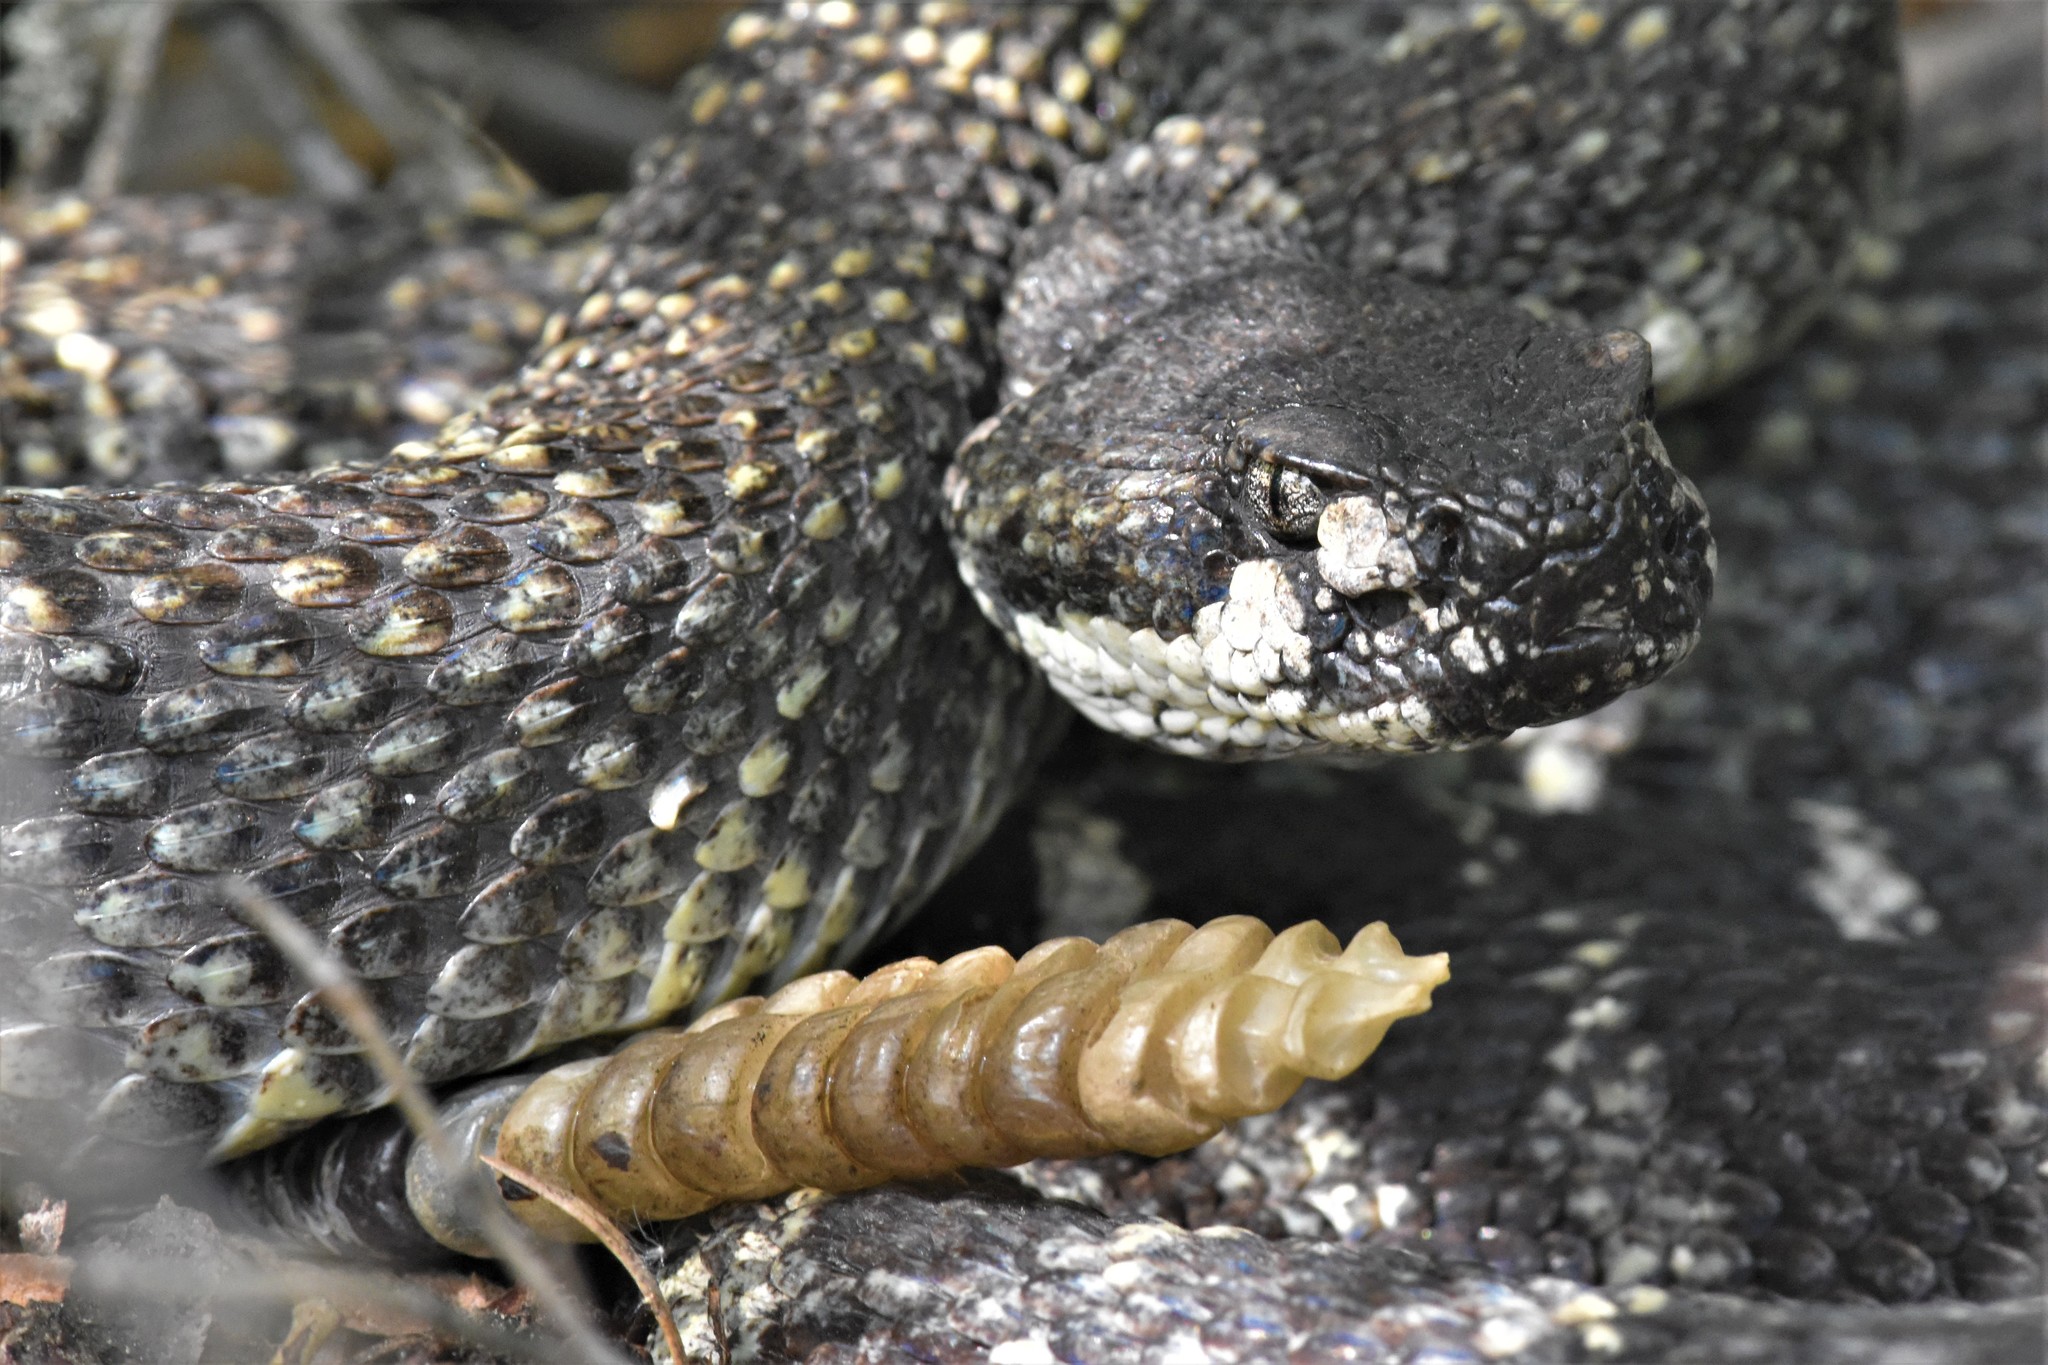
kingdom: Animalia
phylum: Chordata
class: Squamata
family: Viperidae
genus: Crotalus
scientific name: Crotalus oreganus
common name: Abyssus
